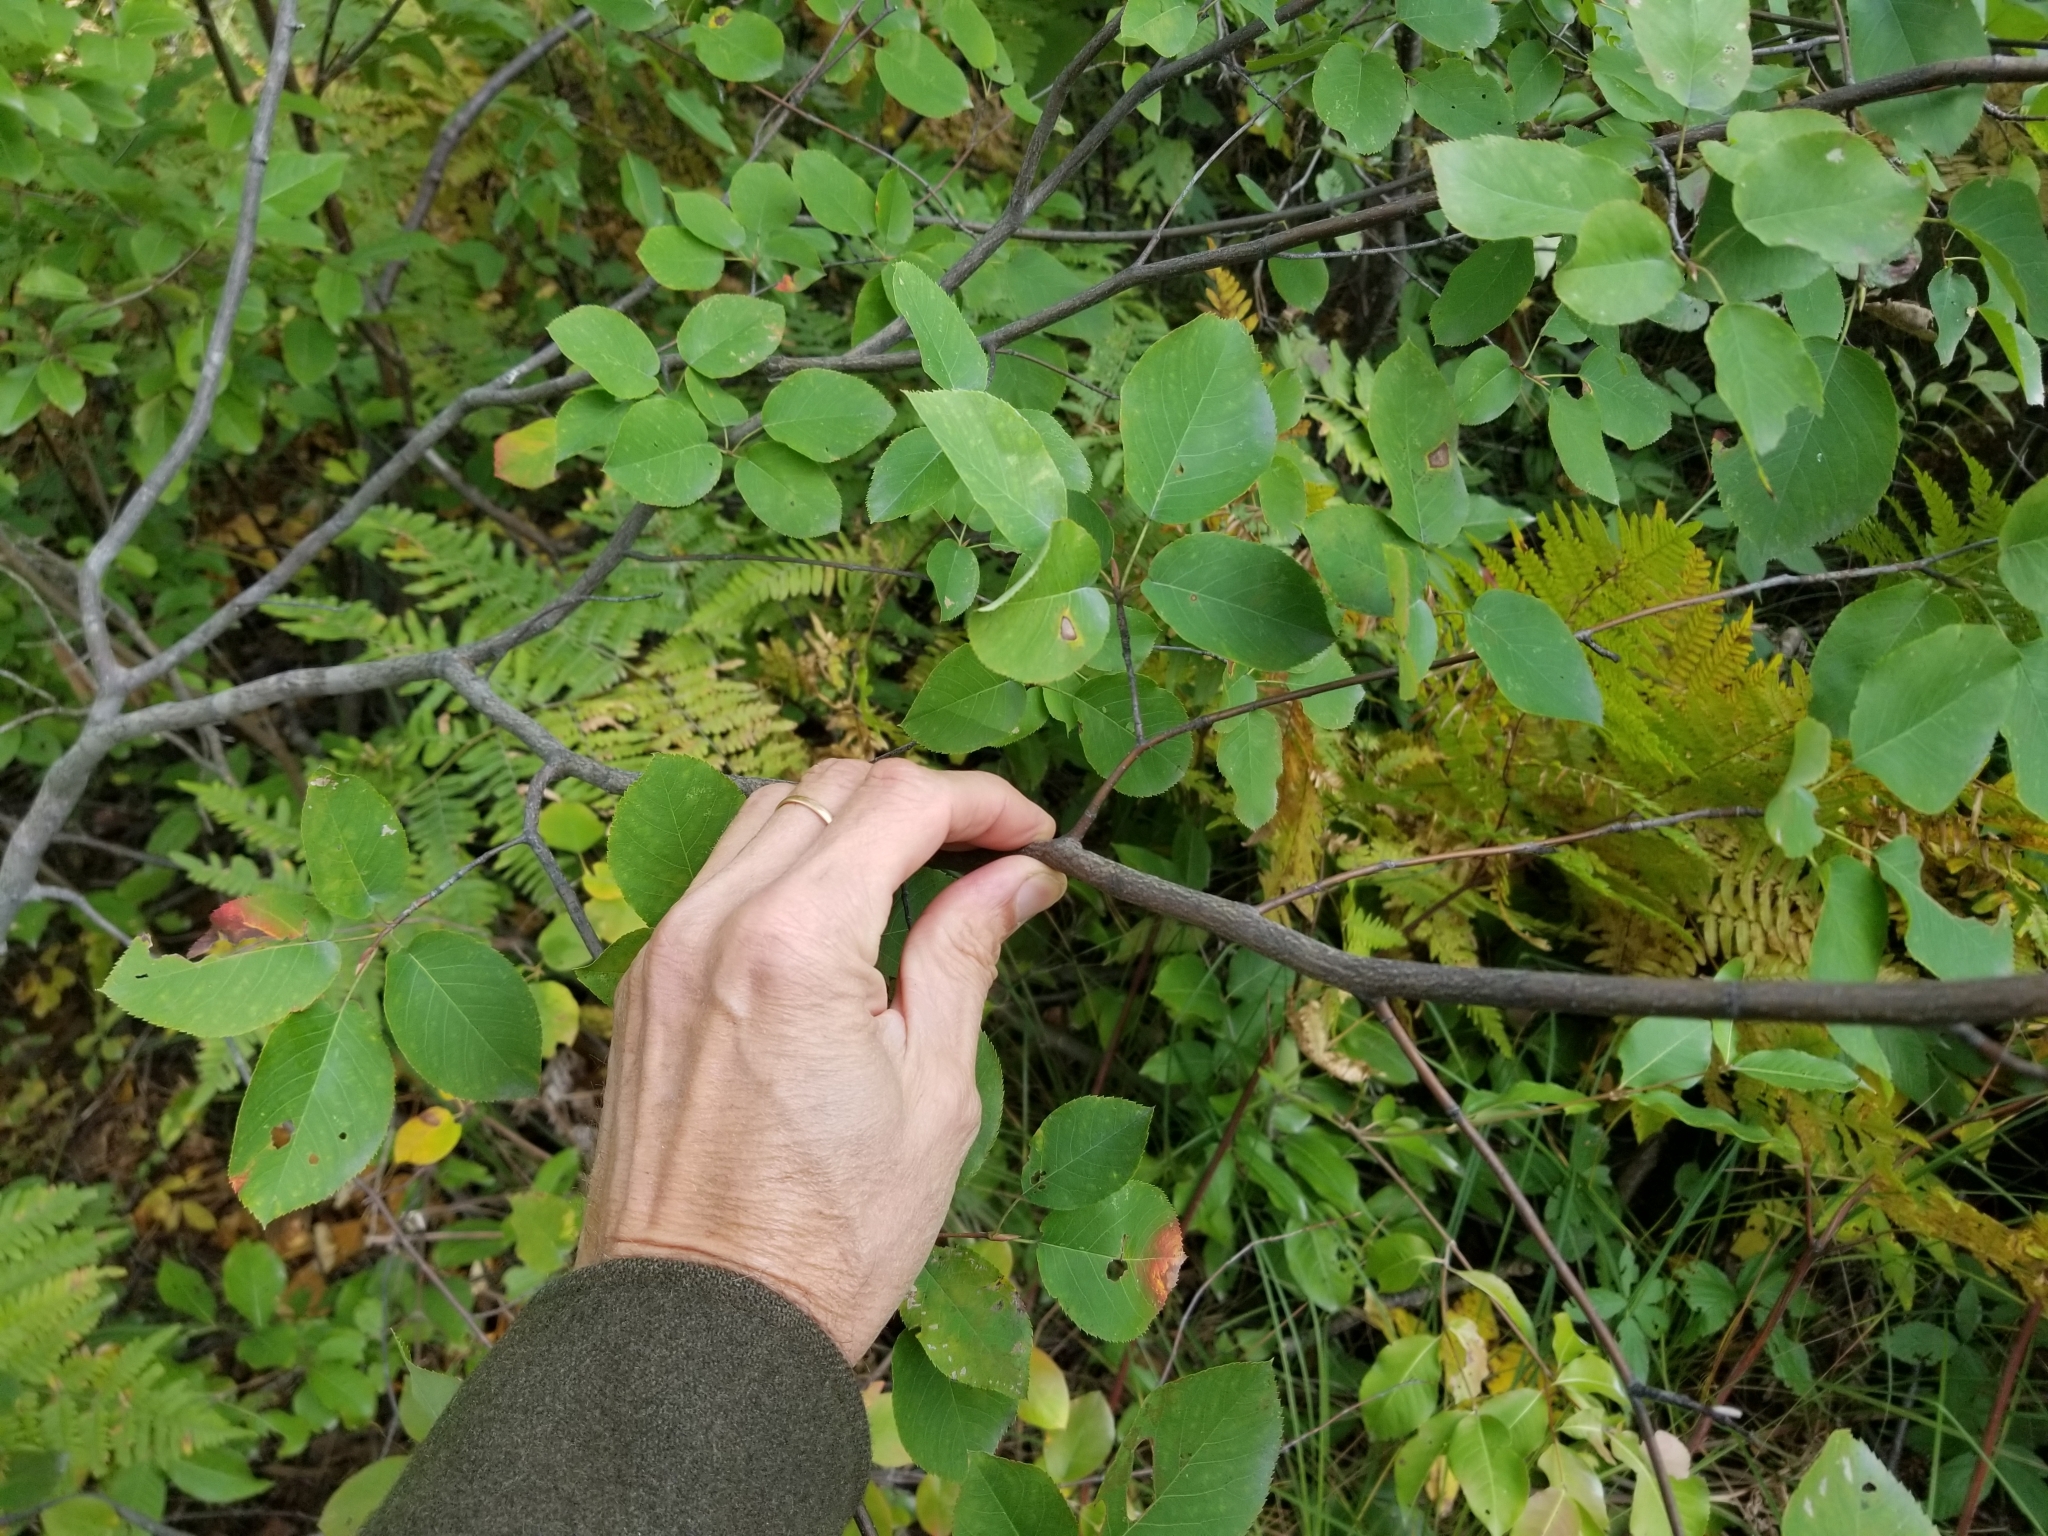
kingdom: Plantae
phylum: Tracheophyta
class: Magnoliopsida
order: Rosales
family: Rosaceae
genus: Amelanchier
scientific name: Amelanchier
